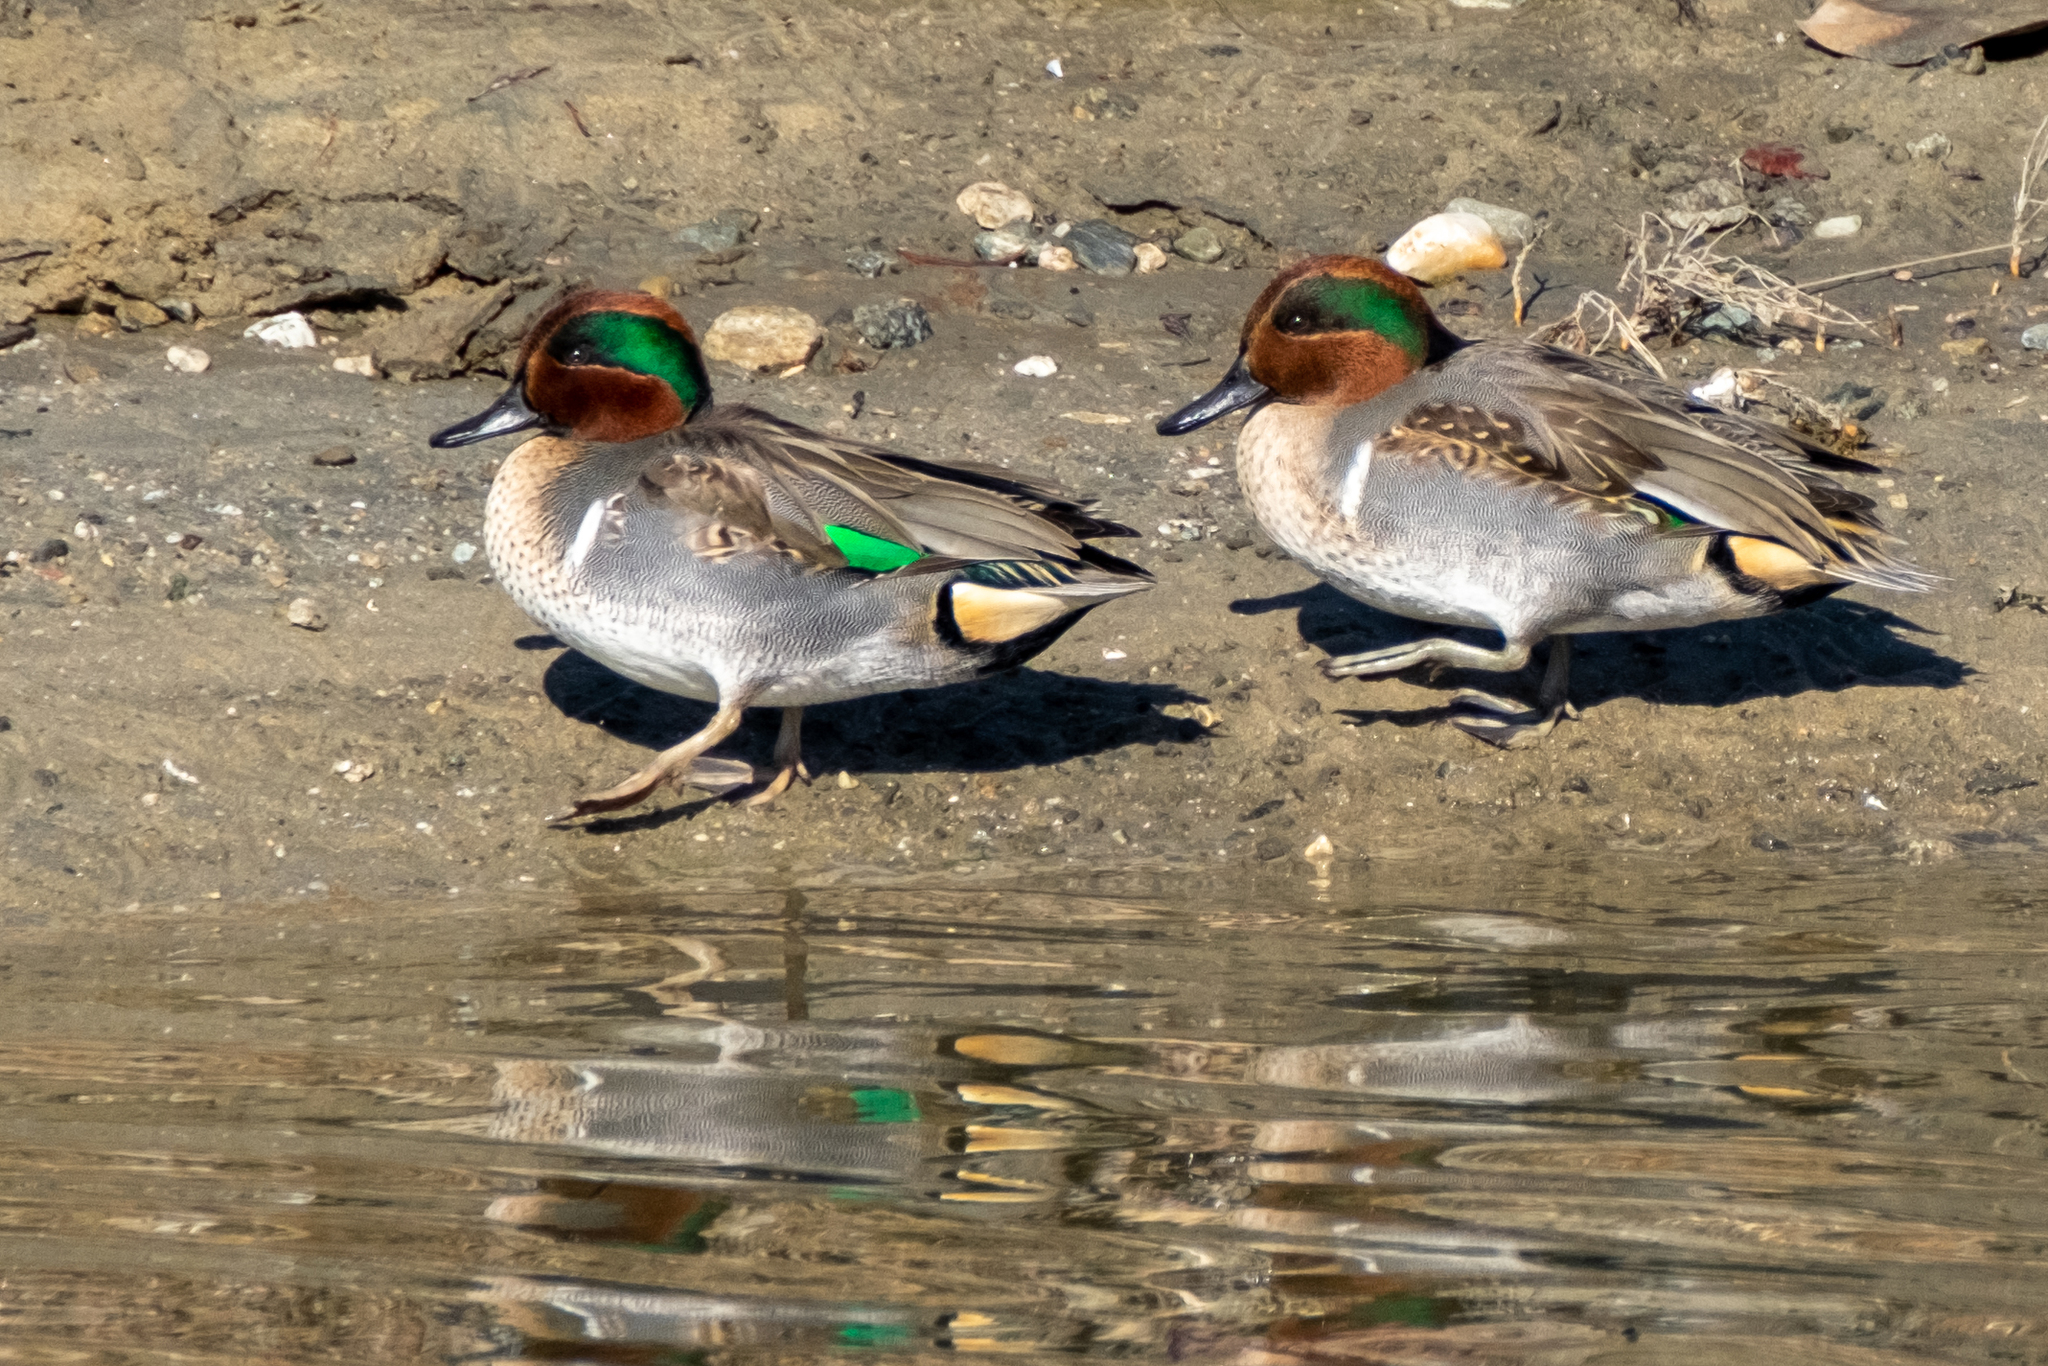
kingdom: Animalia
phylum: Chordata
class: Aves
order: Anseriformes
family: Anatidae
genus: Anas
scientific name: Anas crecca
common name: Eurasian teal
